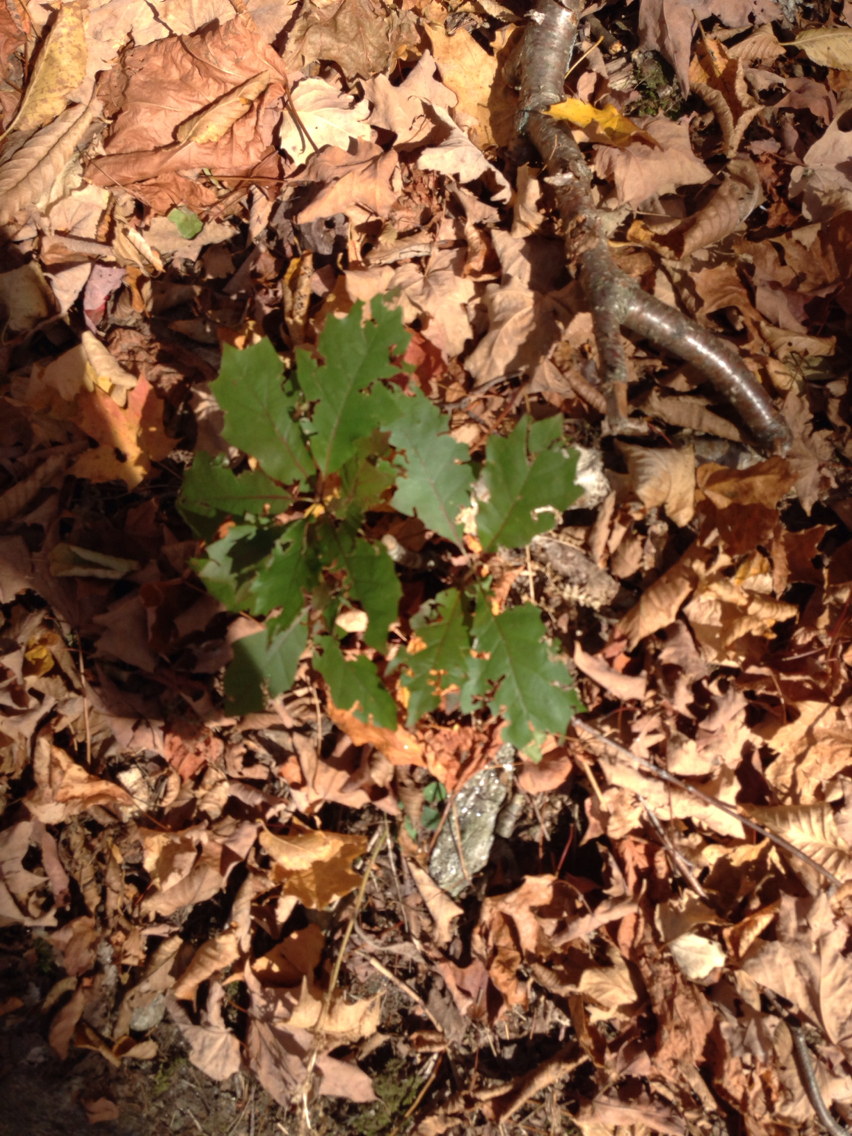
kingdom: Plantae
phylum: Tracheophyta
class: Magnoliopsida
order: Fagales
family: Fagaceae
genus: Quercus
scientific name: Quercus rubra
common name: Red oak
